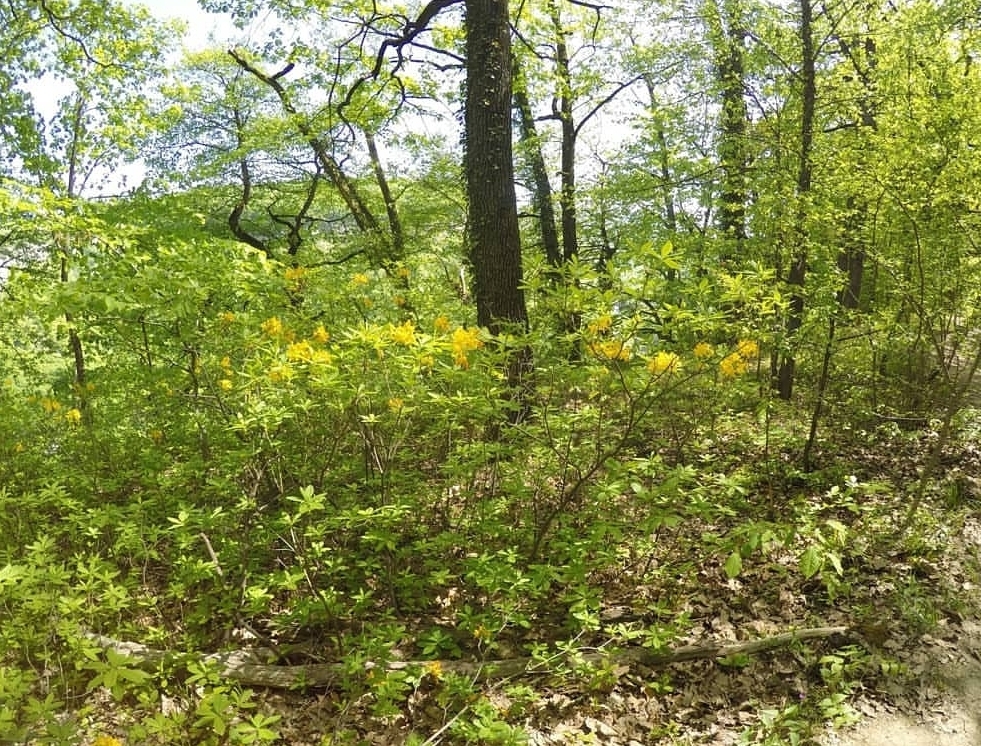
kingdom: Plantae
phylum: Tracheophyta
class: Magnoliopsida
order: Ericales
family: Ericaceae
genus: Rhododendron
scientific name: Rhododendron luteum
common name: Yellow azalea
